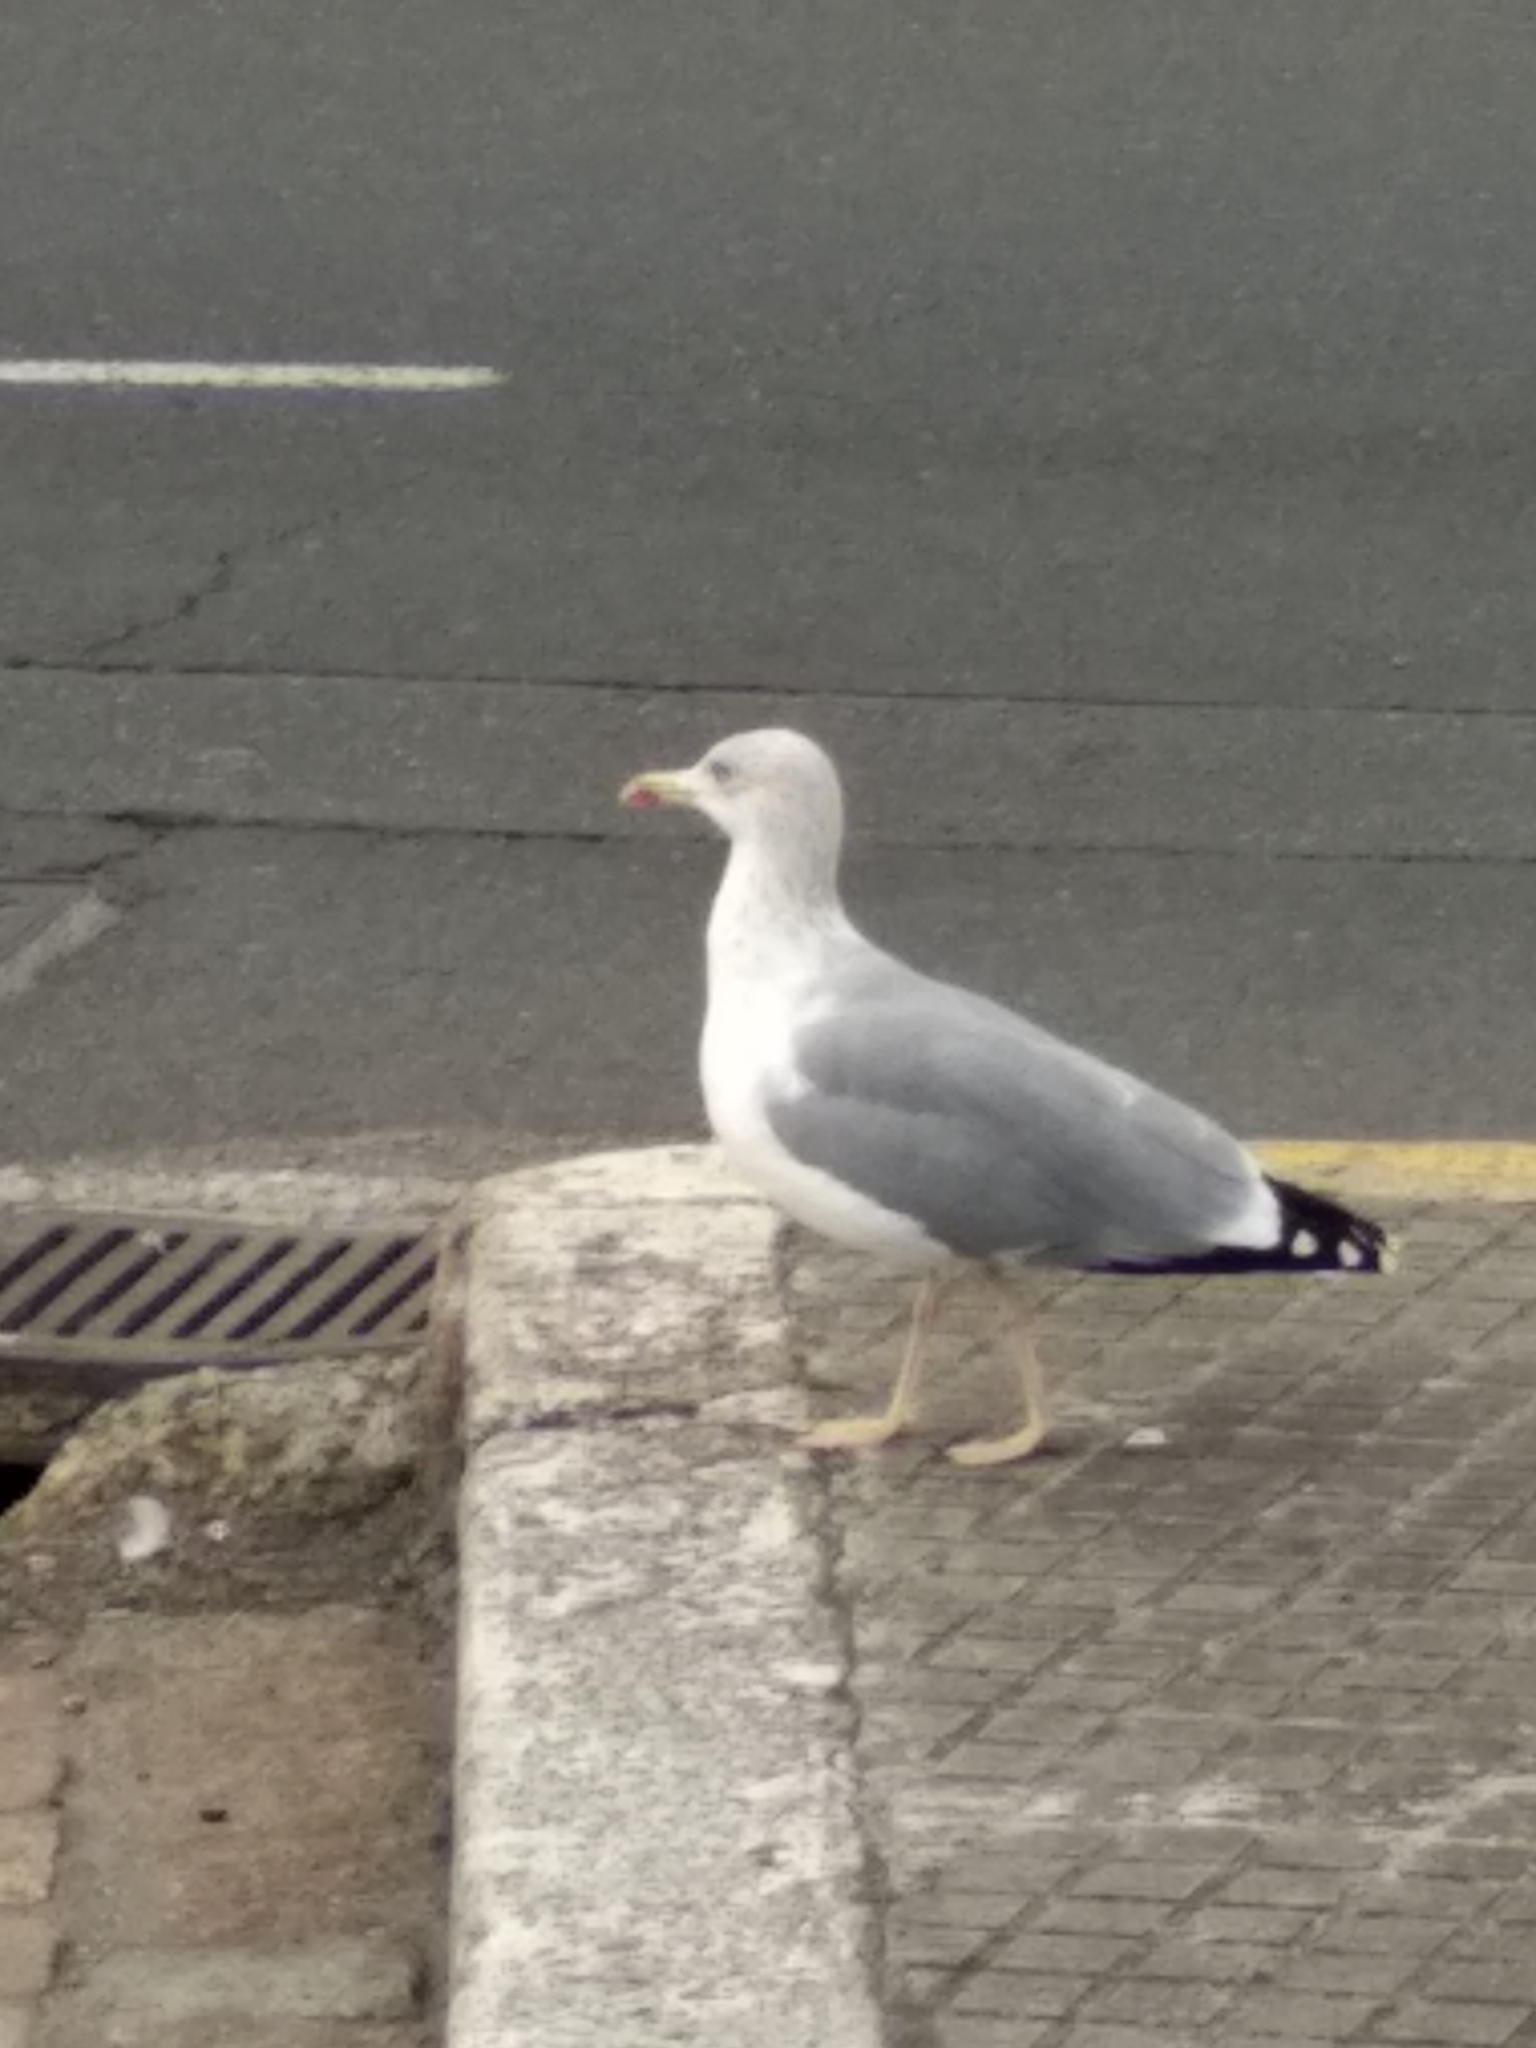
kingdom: Animalia
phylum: Chordata
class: Aves
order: Charadriiformes
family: Laridae
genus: Larus
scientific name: Larus michahellis
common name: Yellow-legged gull
